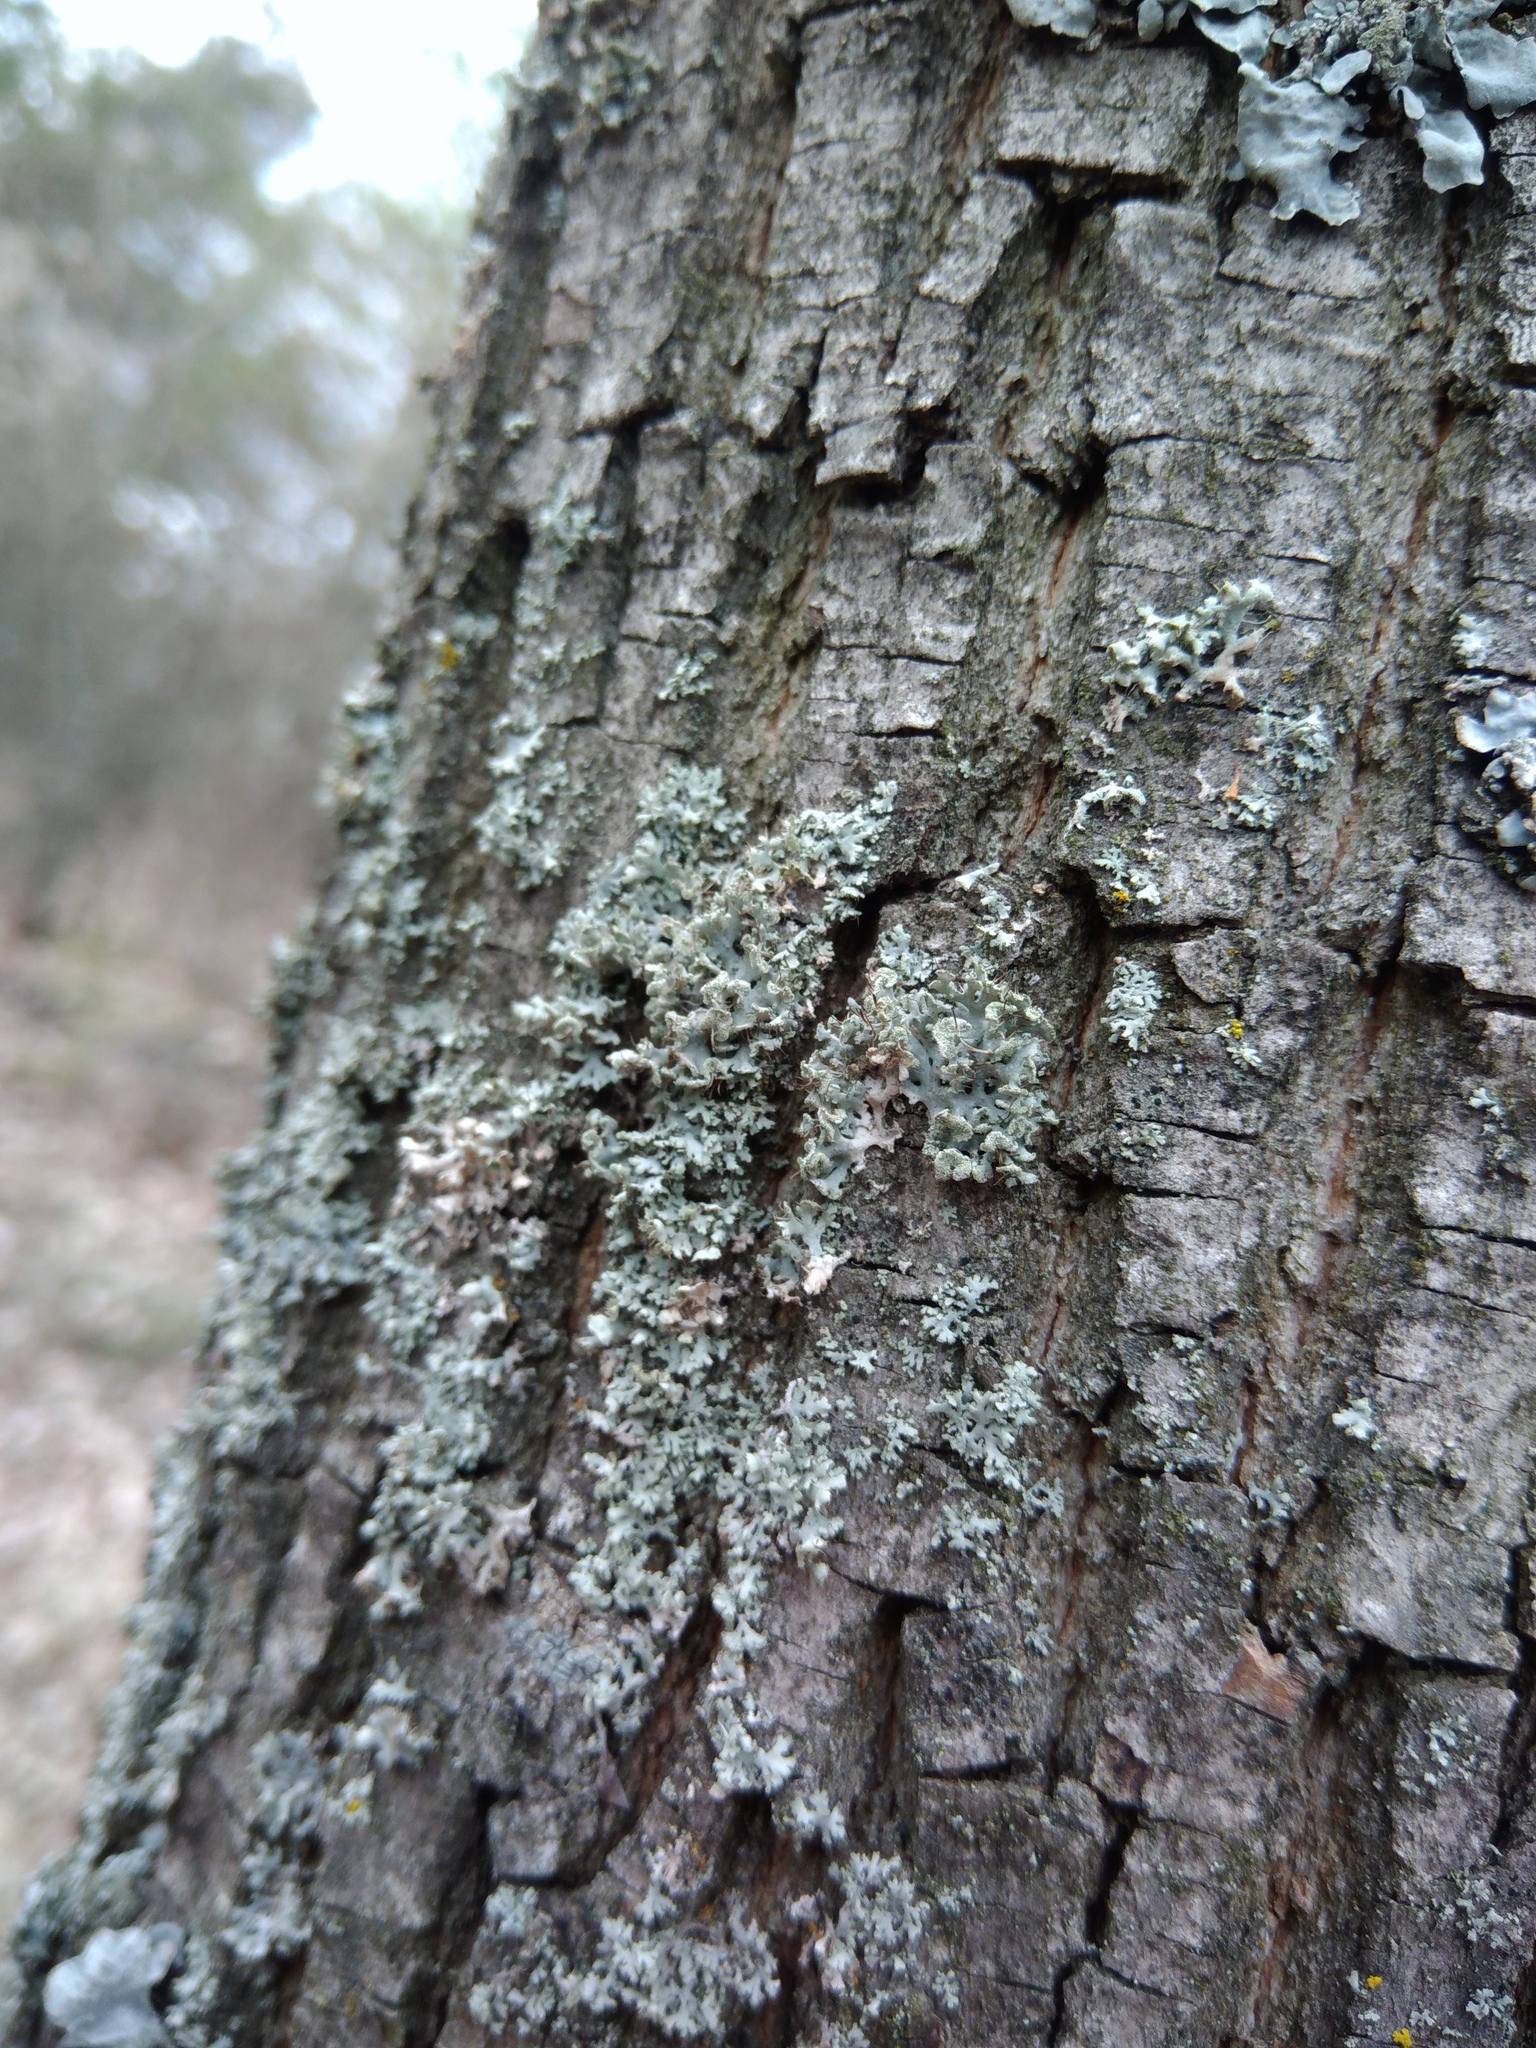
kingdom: Fungi
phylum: Ascomycota
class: Lecanoromycetes
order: Caliciales
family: Physciaceae
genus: Physcia
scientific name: Physcia tenella
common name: Fringed rosette lichen
